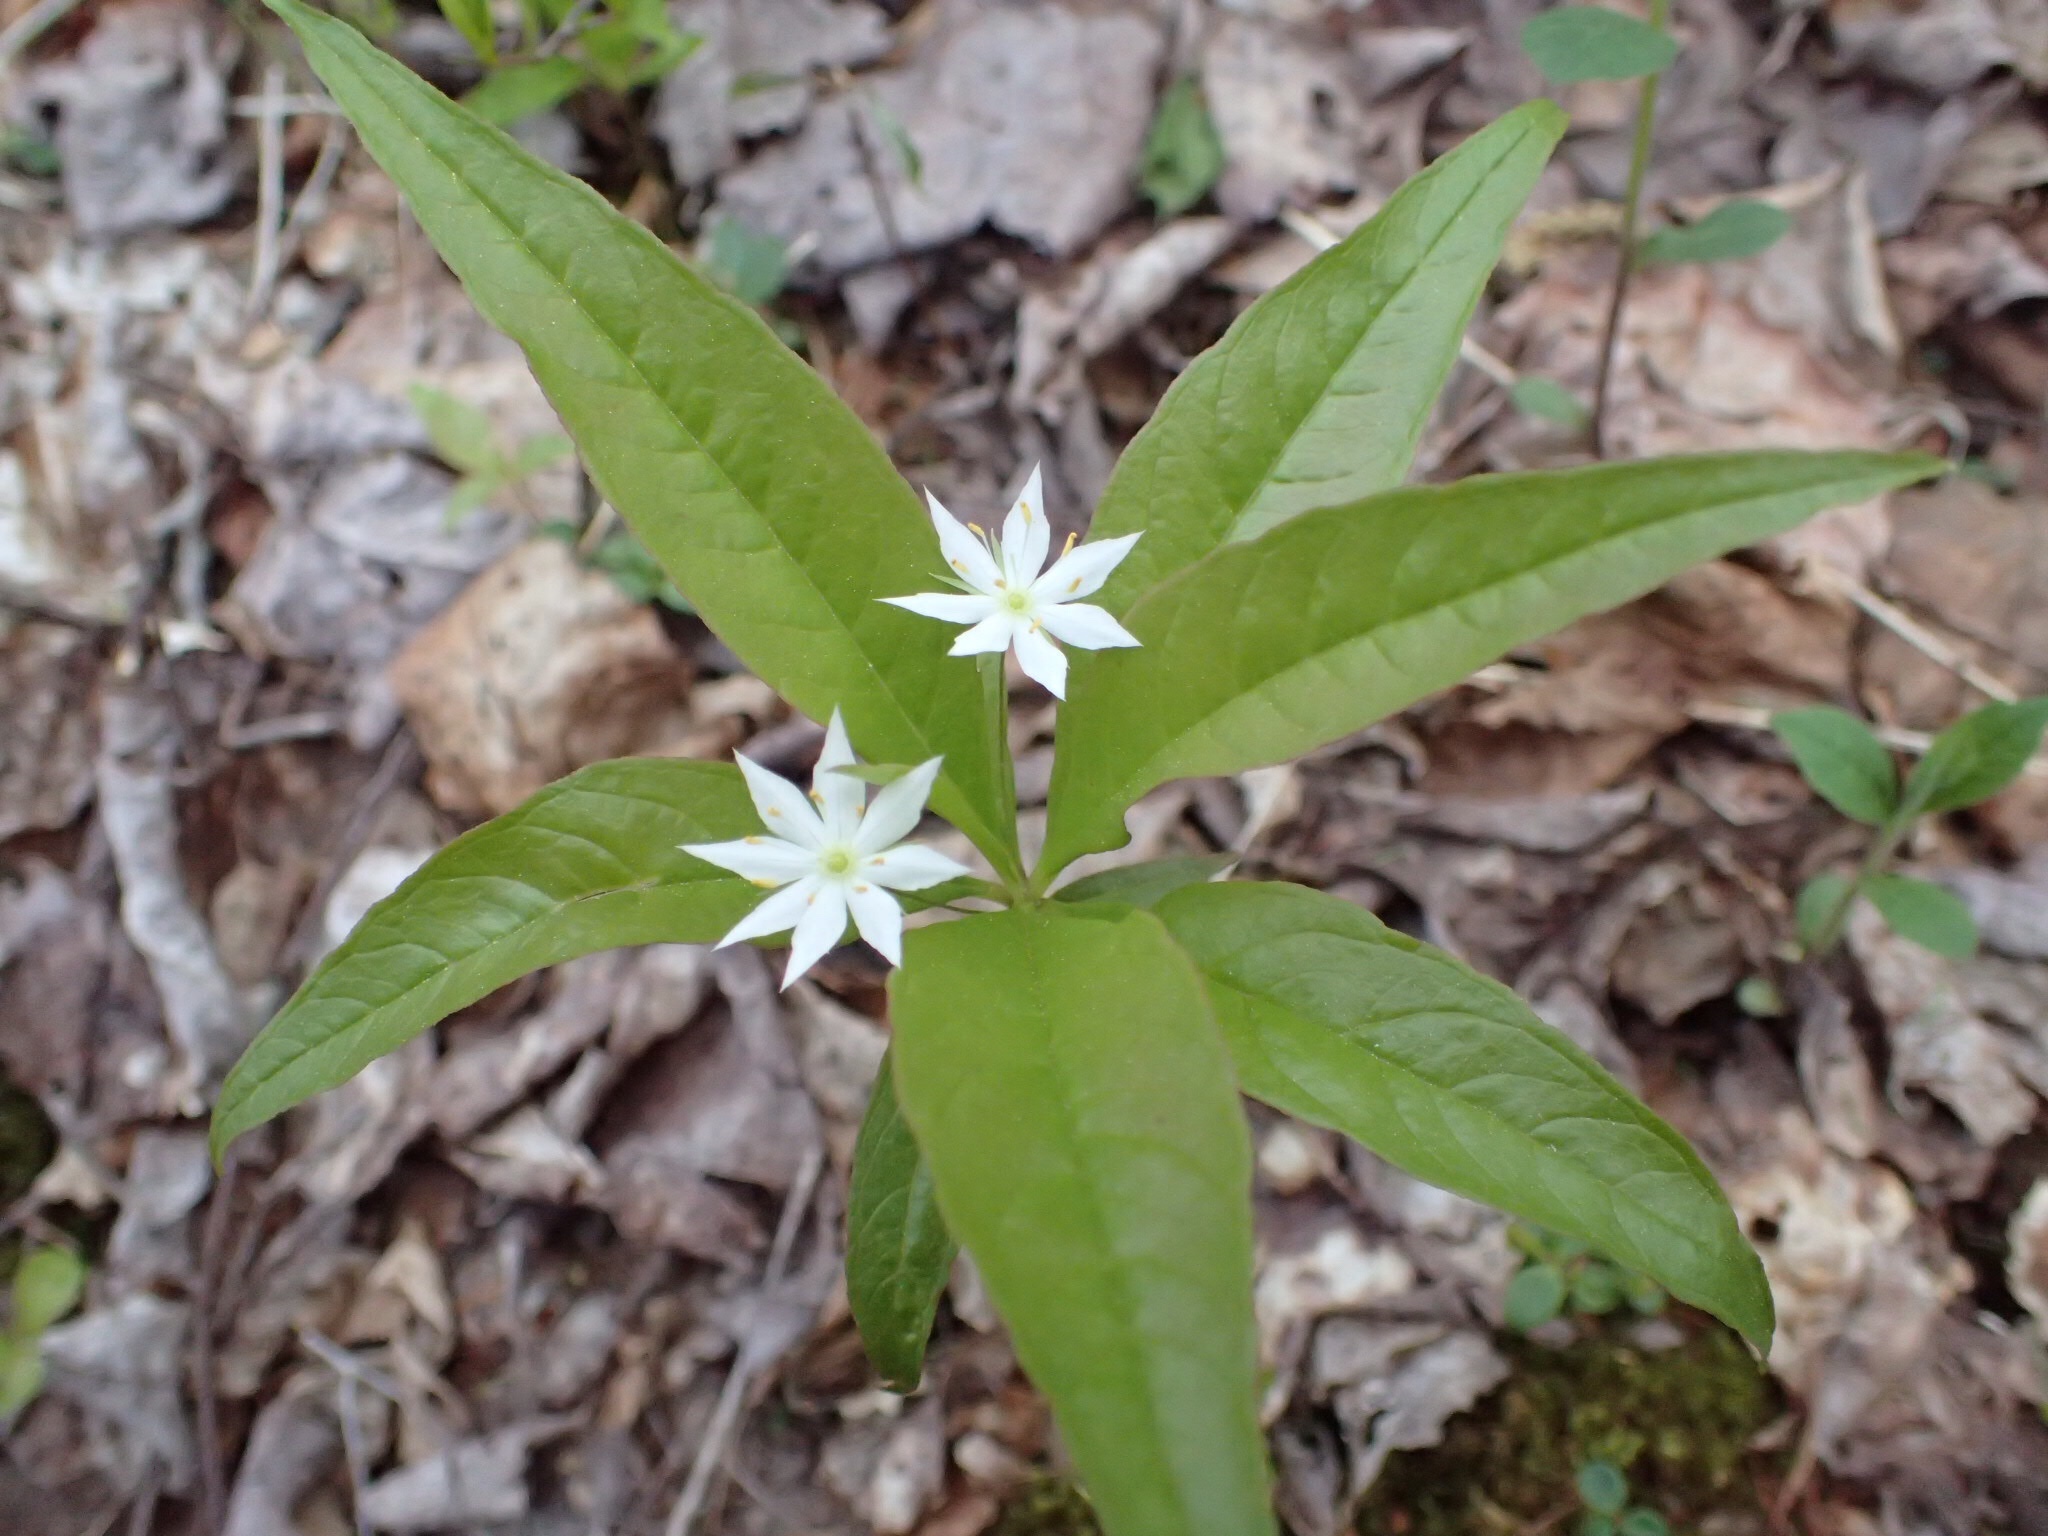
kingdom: Plantae
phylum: Tracheophyta
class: Magnoliopsida
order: Ericales
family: Primulaceae
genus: Lysimachia
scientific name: Lysimachia borealis
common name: American starflower
